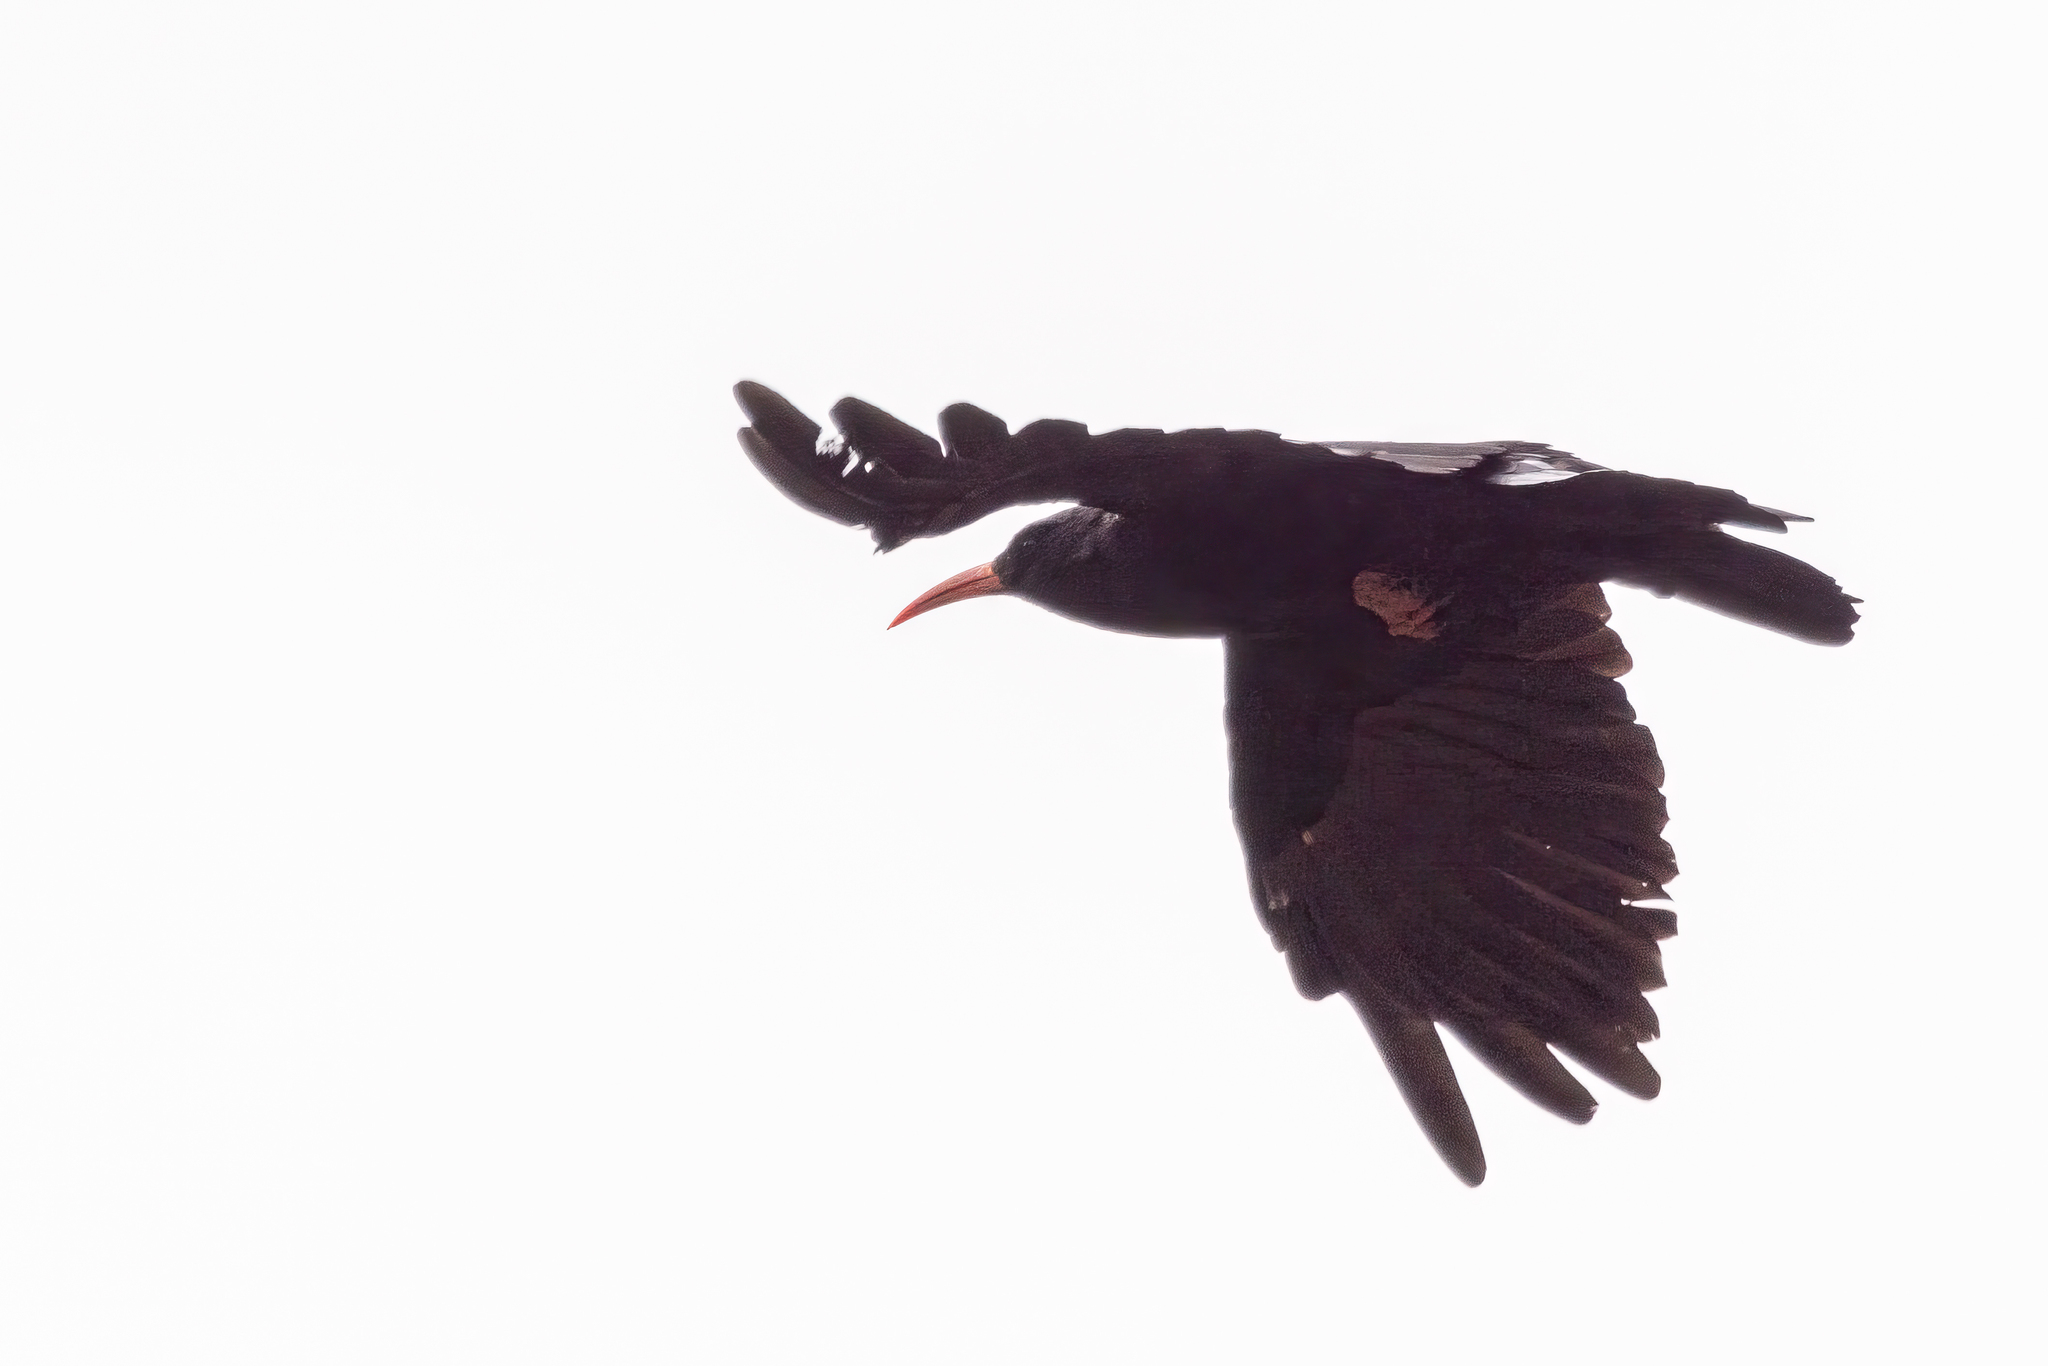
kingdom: Animalia
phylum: Chordata
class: Aves
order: Passeriformes
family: Corvidae
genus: Pyrrhocorax
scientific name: Pyrrhocorax pyrrhocorax
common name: Red-billed chough
